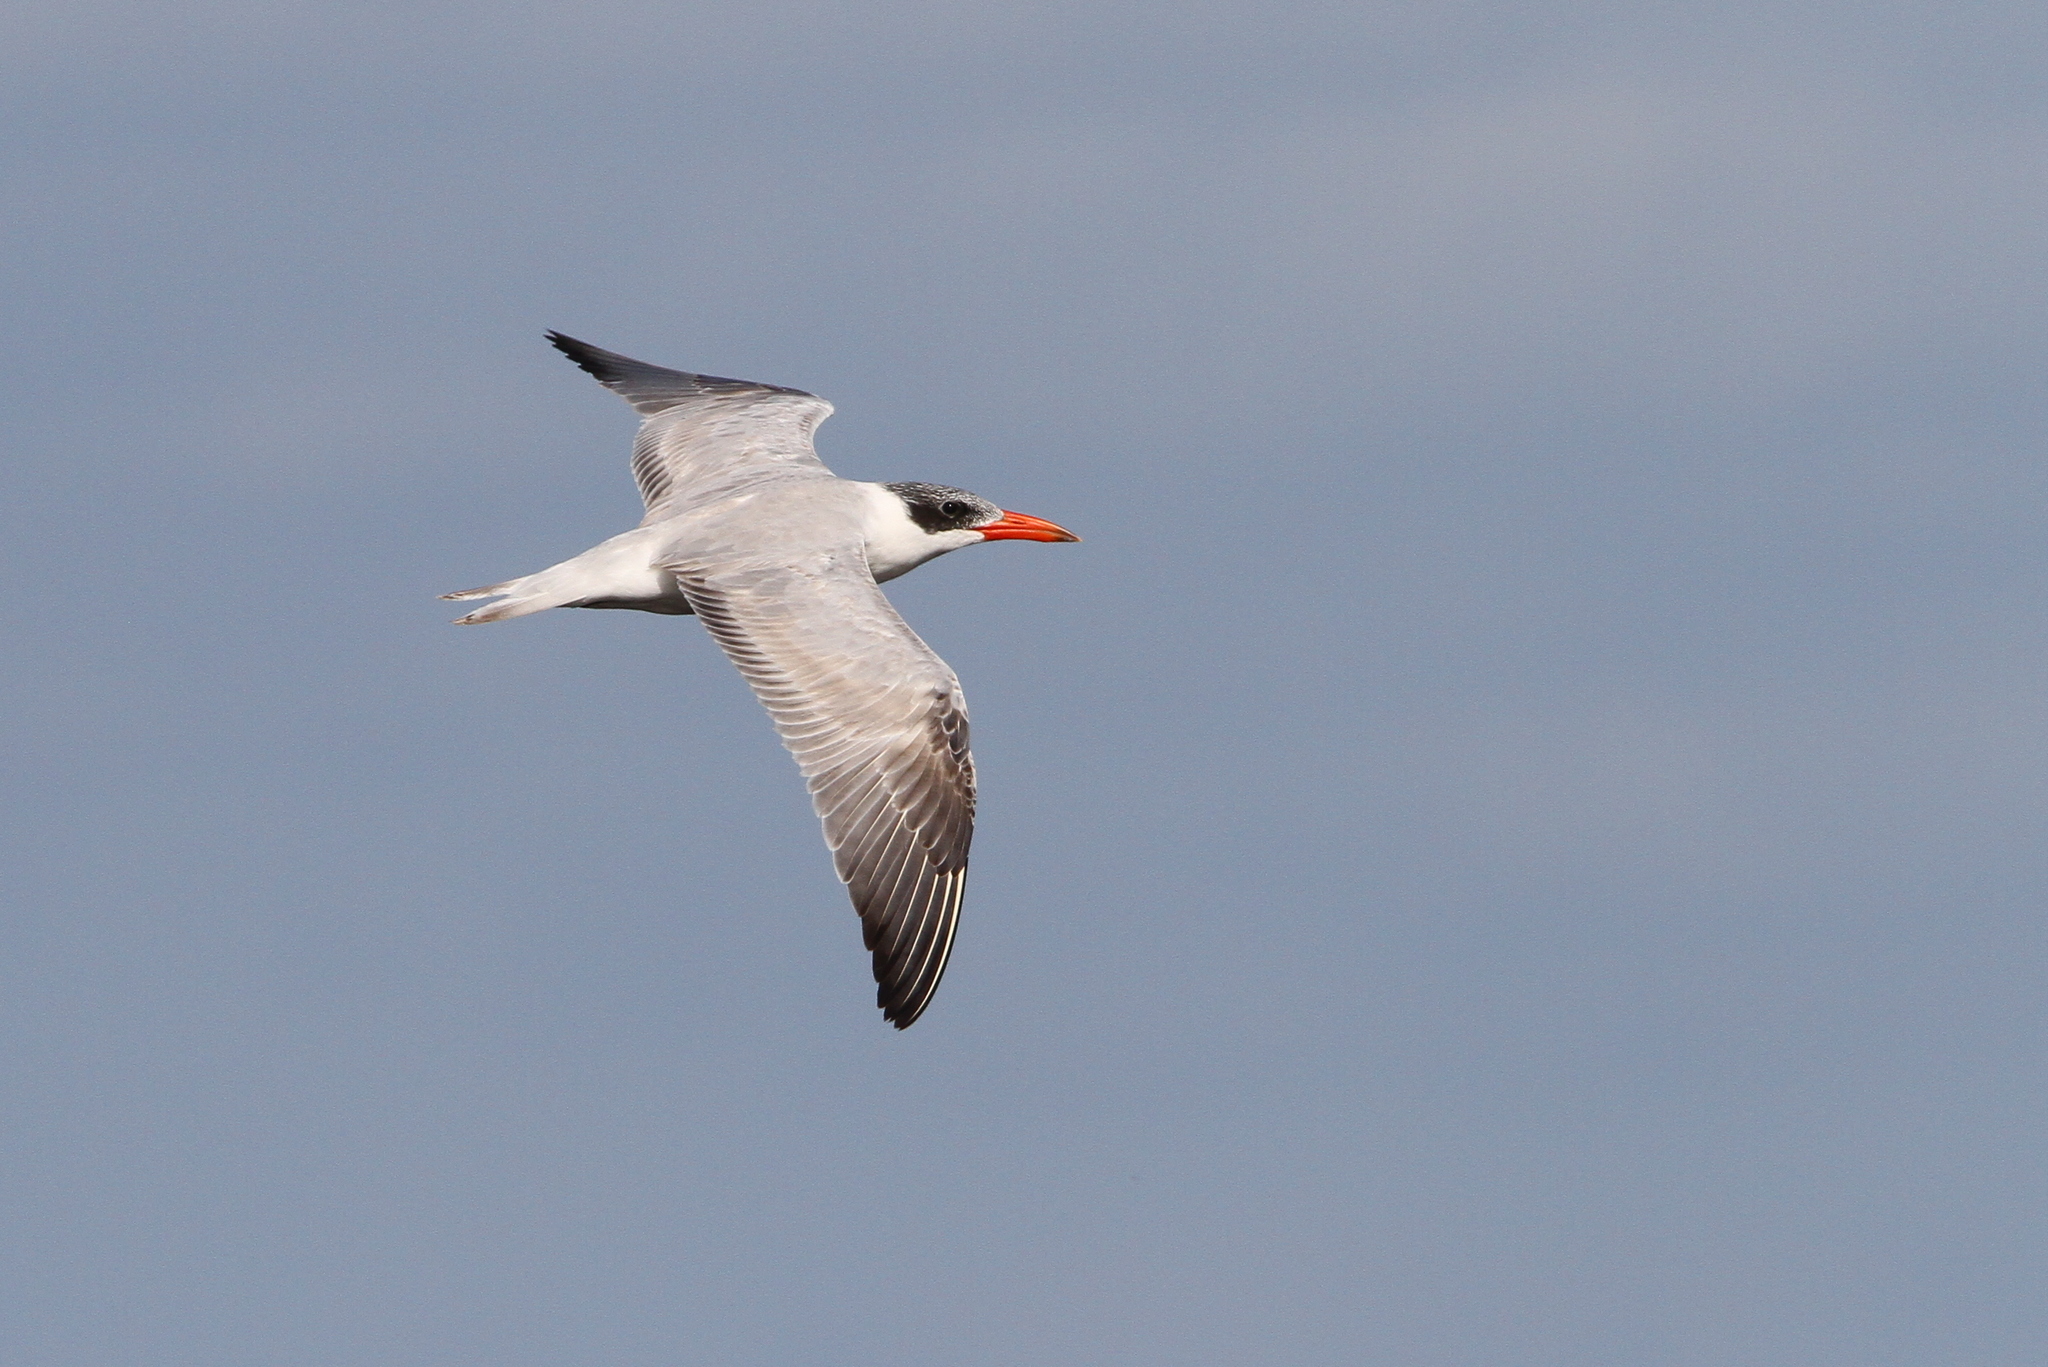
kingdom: Animalia
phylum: Chordata
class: Aves
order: Charadriiformes
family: Laridae
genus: Hydroprogne
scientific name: Hydroprogne caspia
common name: Caspian tern
